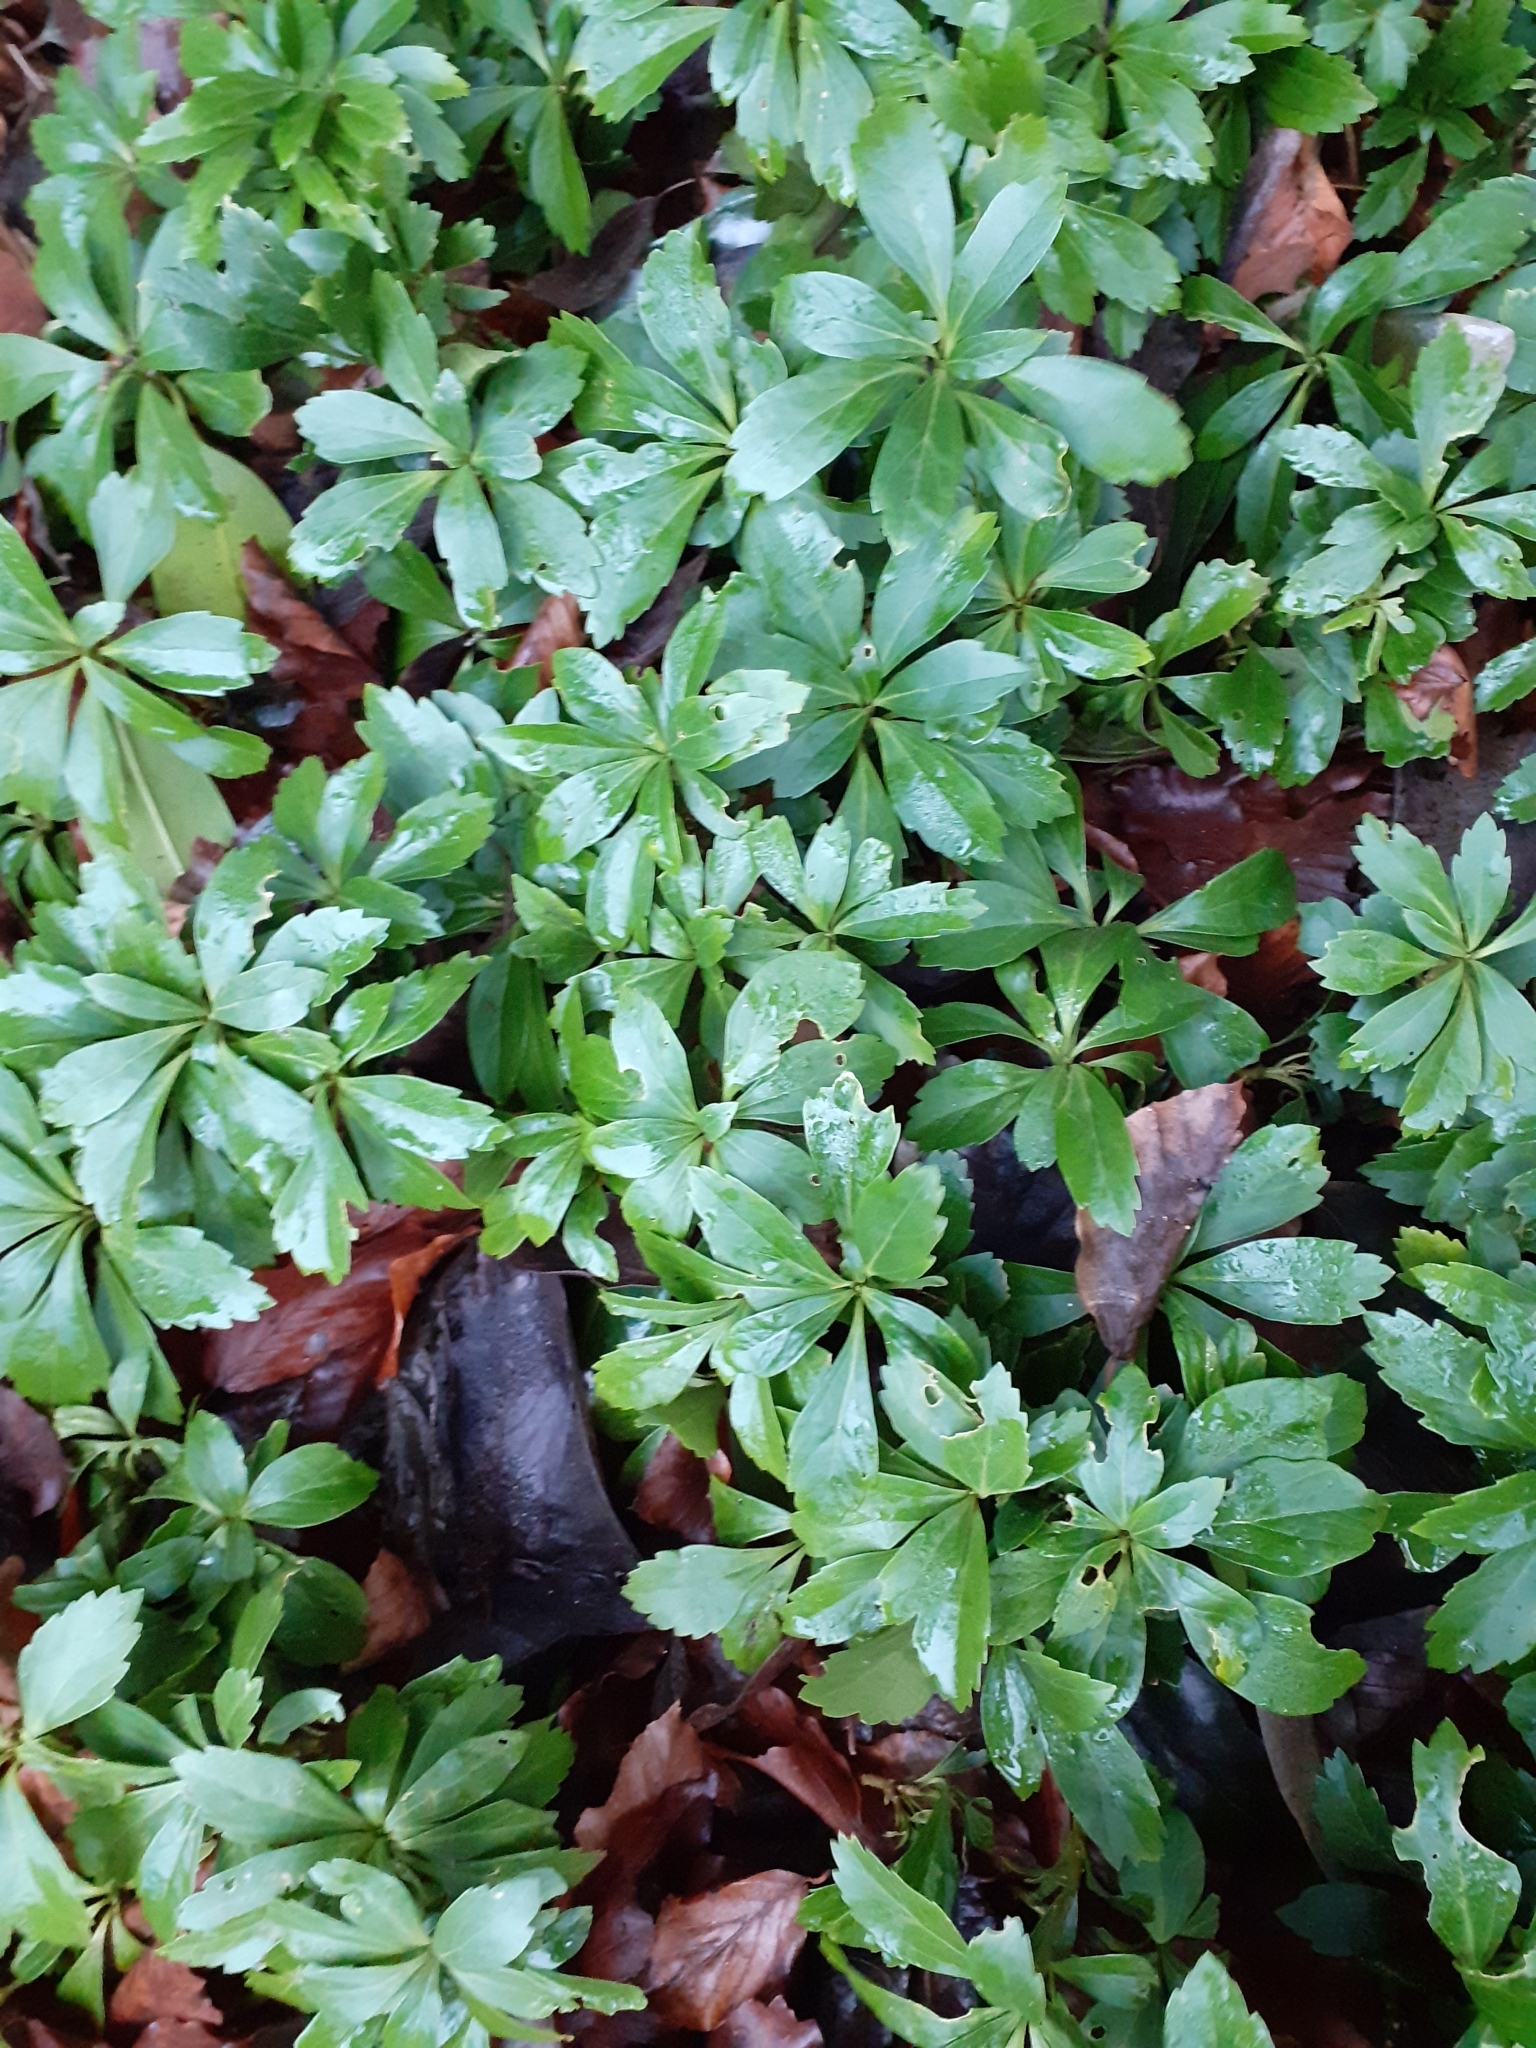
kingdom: Plantae
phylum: Tracheophyta
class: Magnoliopsida
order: Buxales
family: Buxaceae
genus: Pachysandra
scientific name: Pachysandra terminalis
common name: Japanese pachysandra
